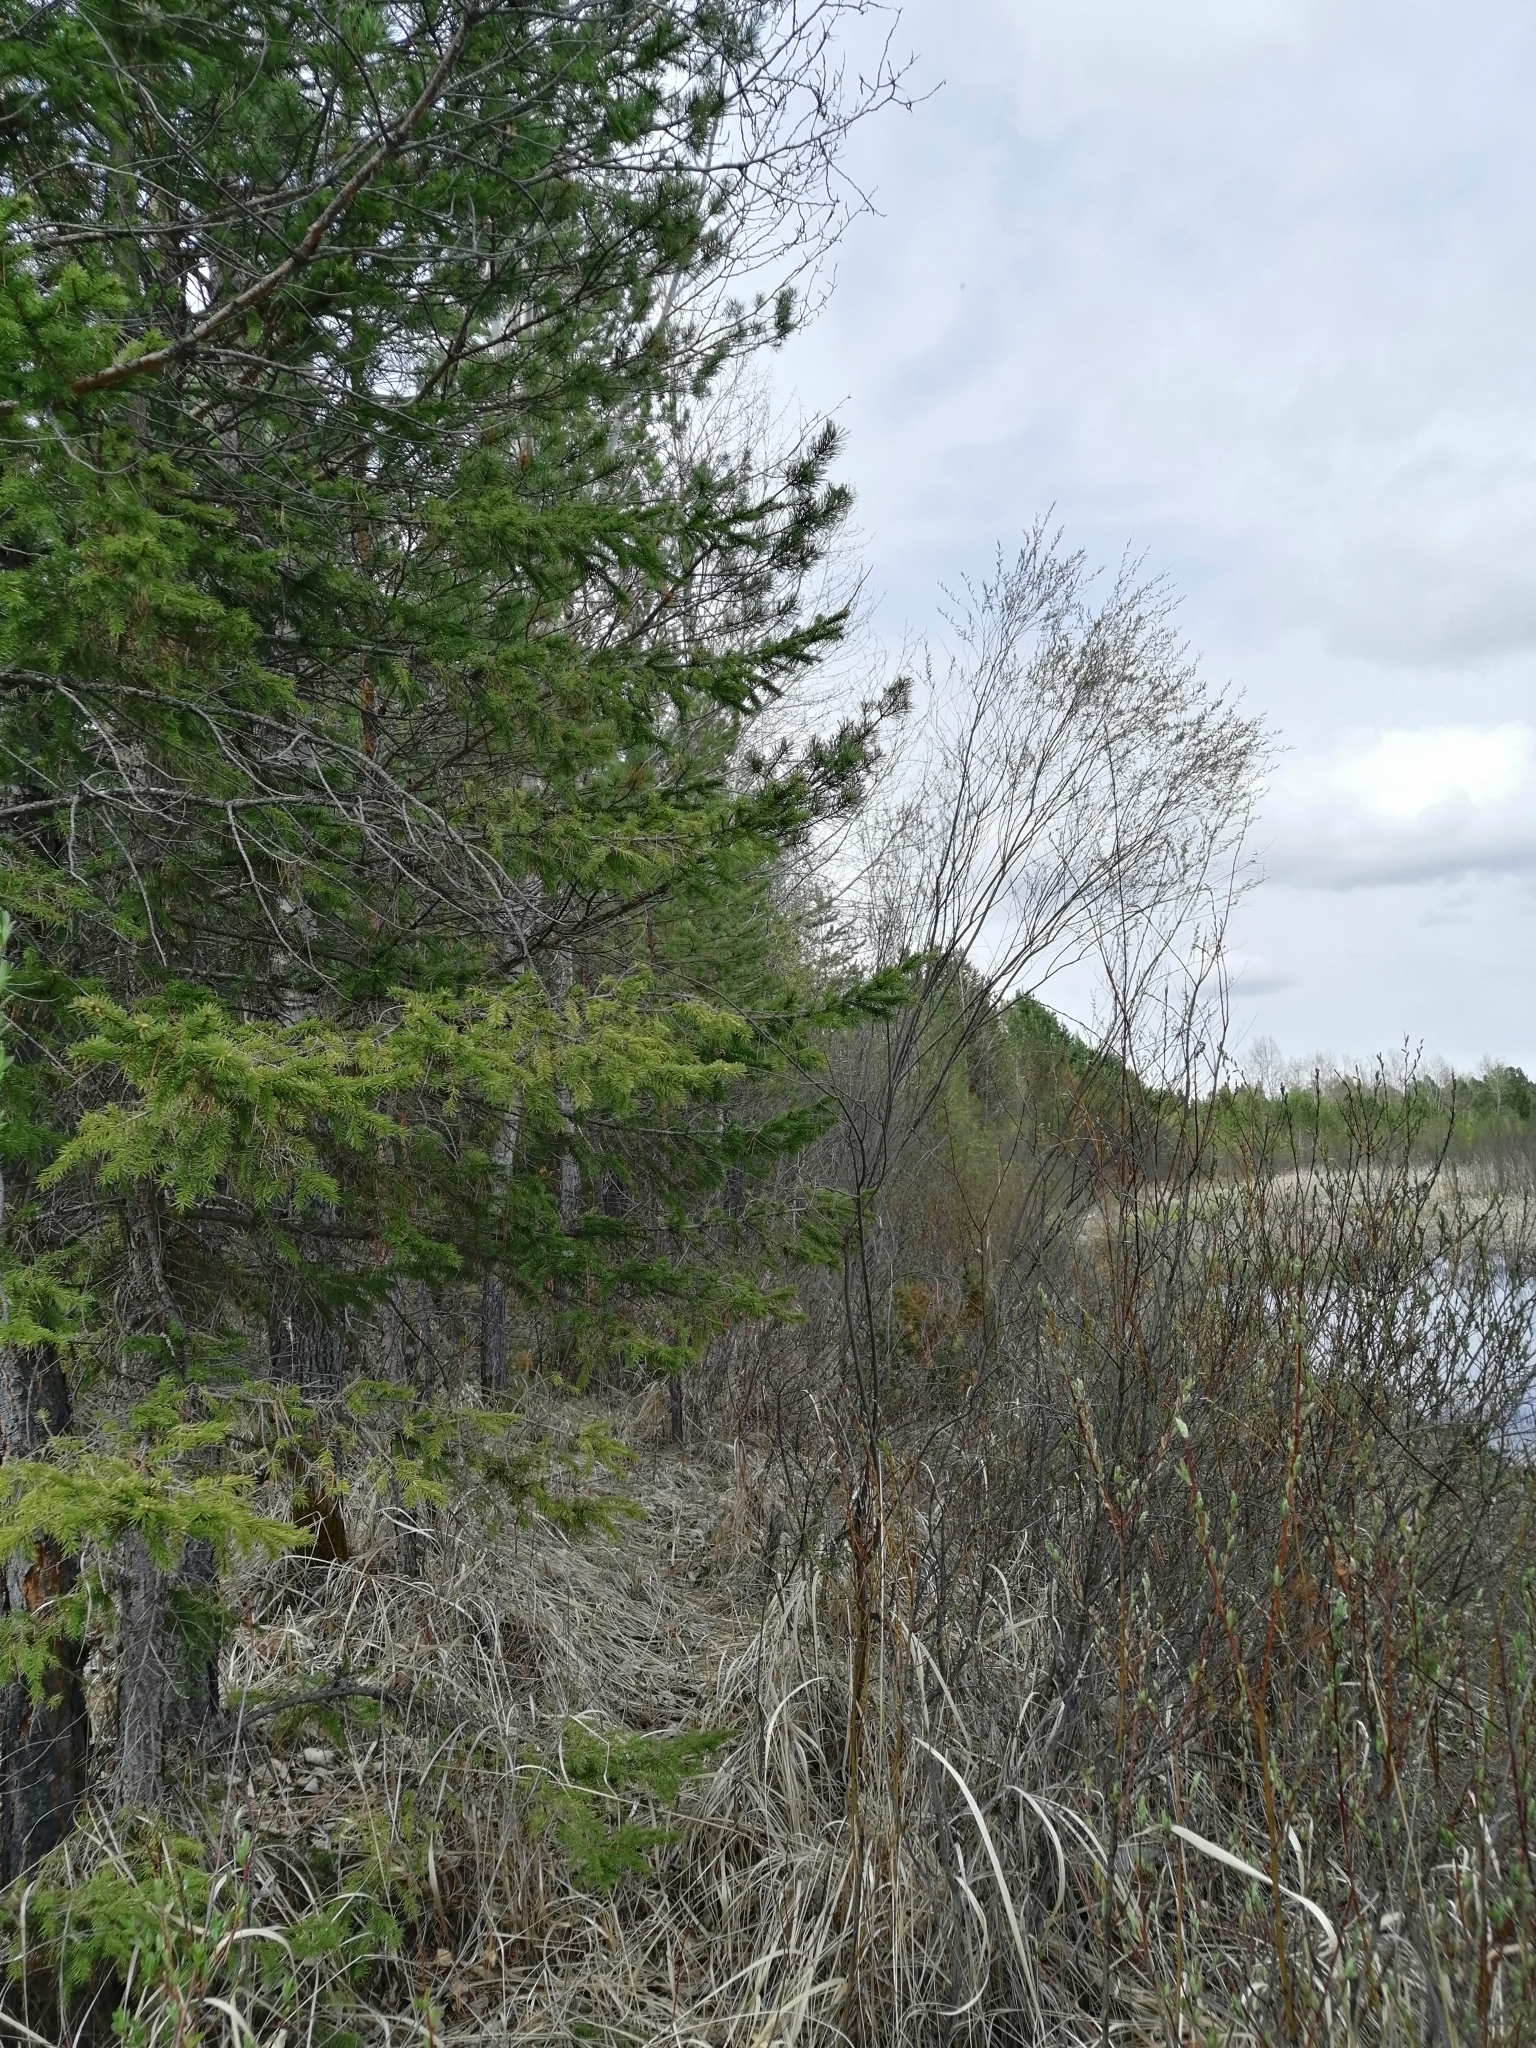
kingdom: Plantae
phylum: Tracheophyta
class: Pinopsida
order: Pinales
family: Pinaceae
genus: Picea
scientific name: Picea obovata
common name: Siberian spruce
